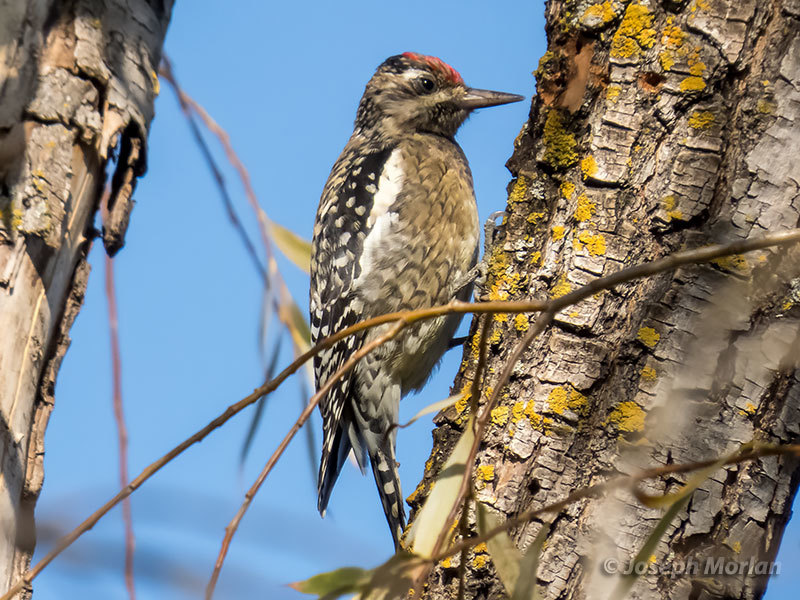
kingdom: Animalia
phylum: Chordata
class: Aves
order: Piciformes
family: Picidae
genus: Sphyrapicus
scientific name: Sphyrapicus varius
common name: Yellow-bellied sapsucker
